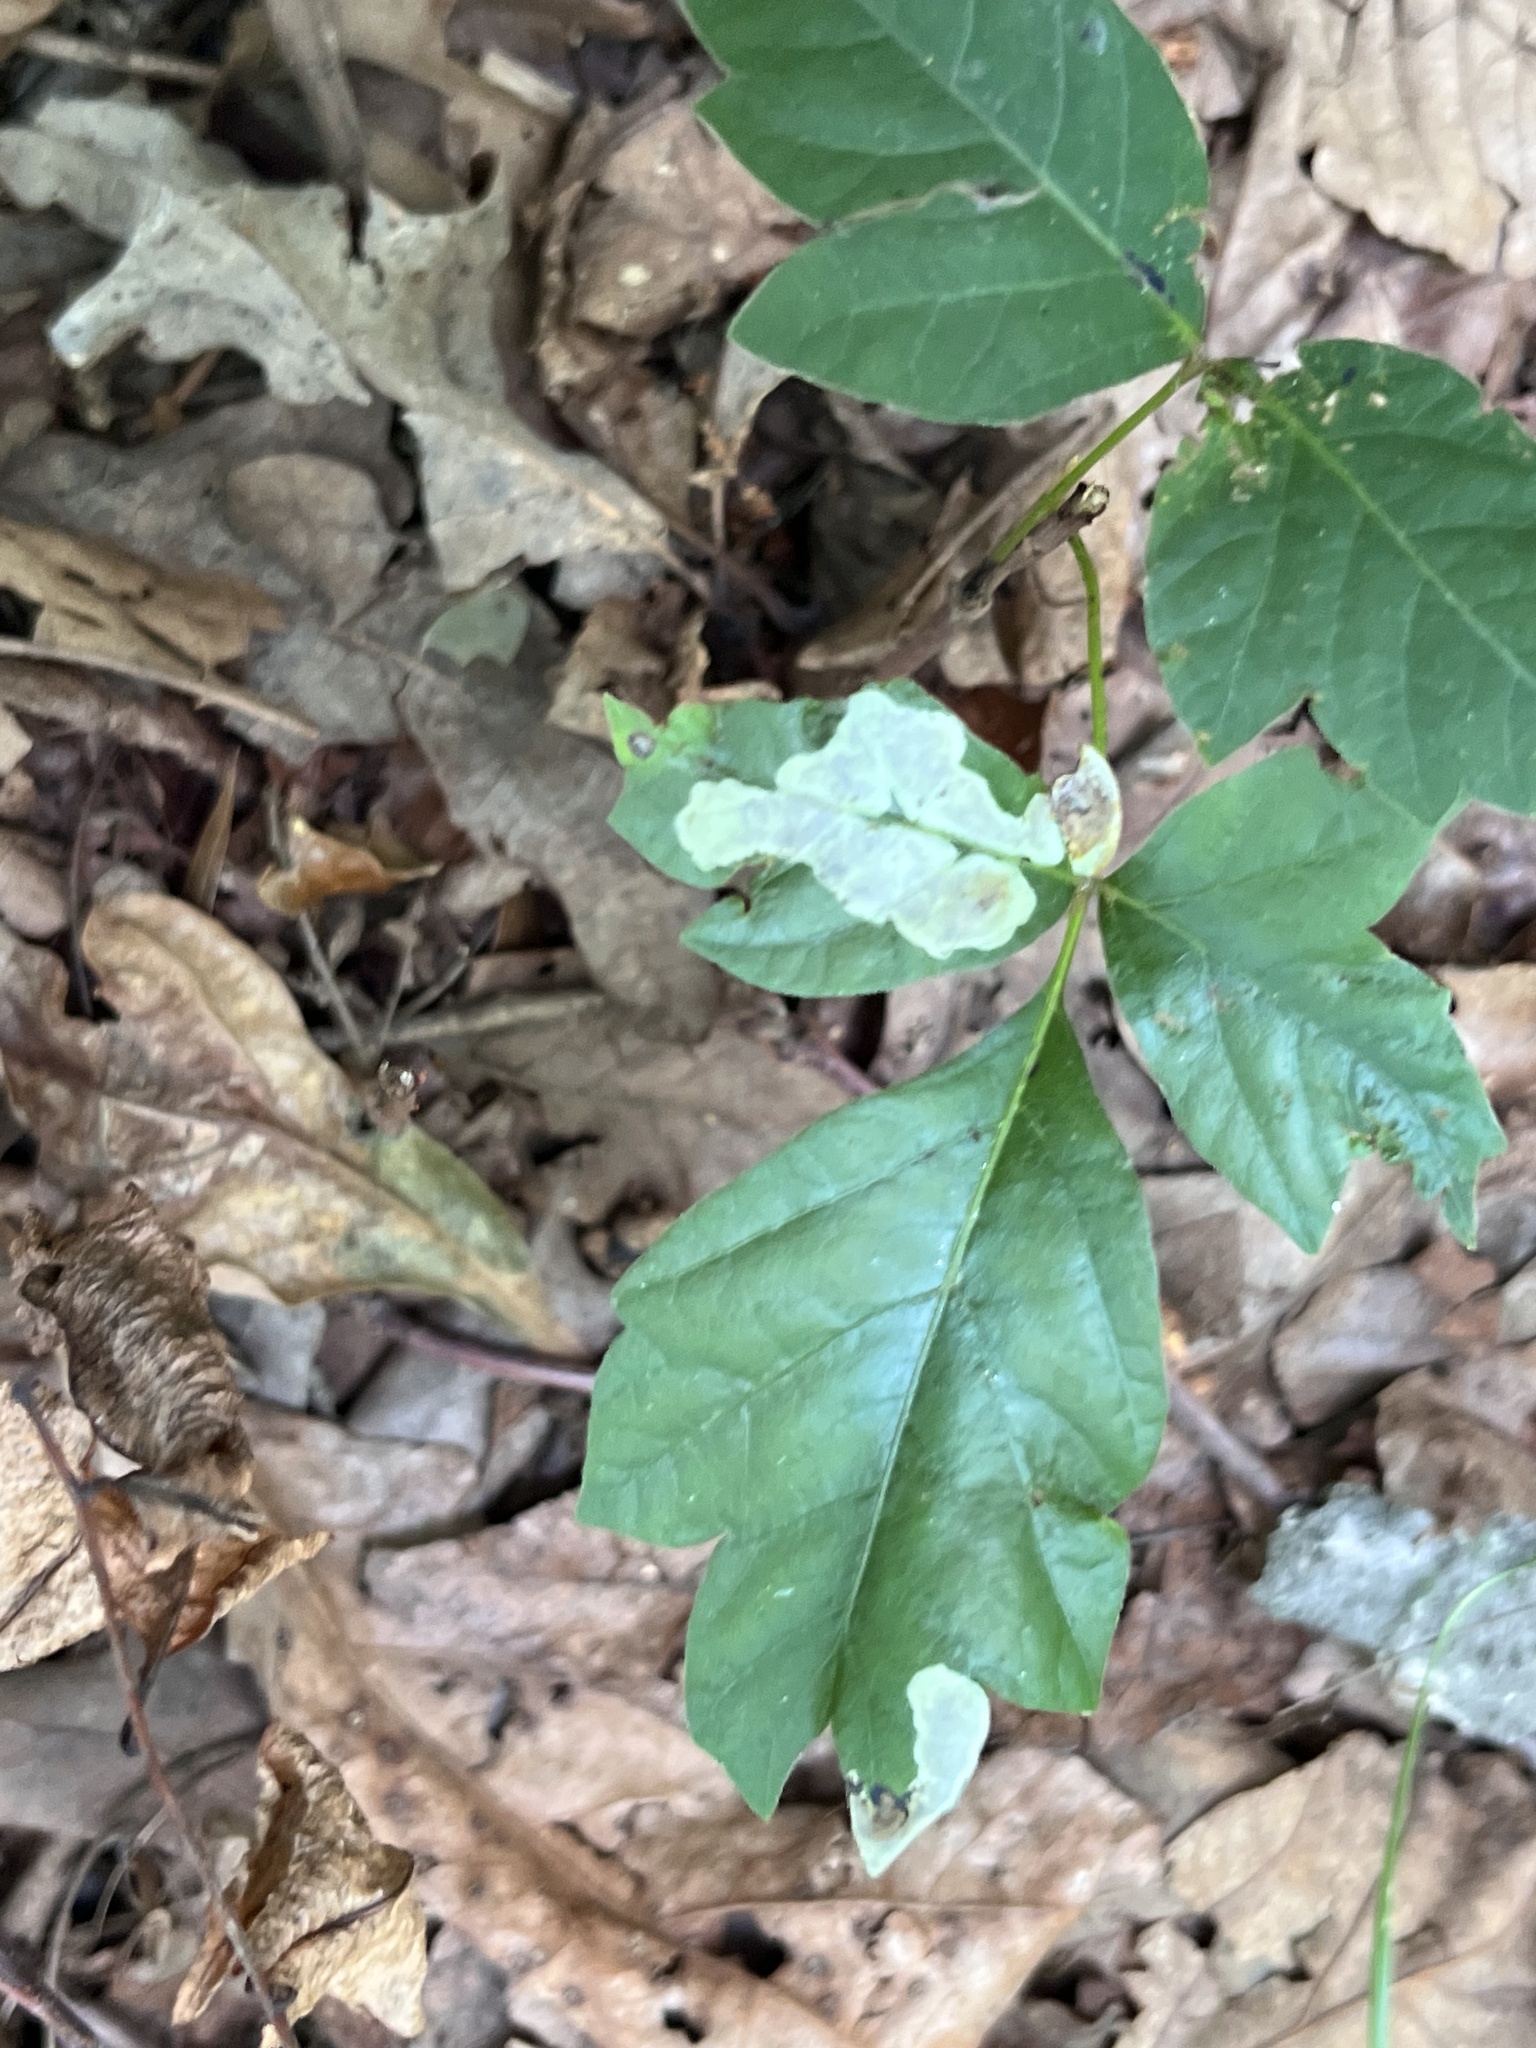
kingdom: Animalia
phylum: Arthropoda
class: Insecta
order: Lepidoptera
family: Gracillariidae
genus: Cameraria
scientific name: Cameraria guttifinitella
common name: Poison ivy leaf-miner moth
